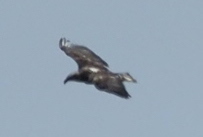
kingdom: Animalia
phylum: Chordata
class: Aves
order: Accipitriformes
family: Accipitridae
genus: Haliaeetus
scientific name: Haliaeetus leucocephalus
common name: Bald eagle
